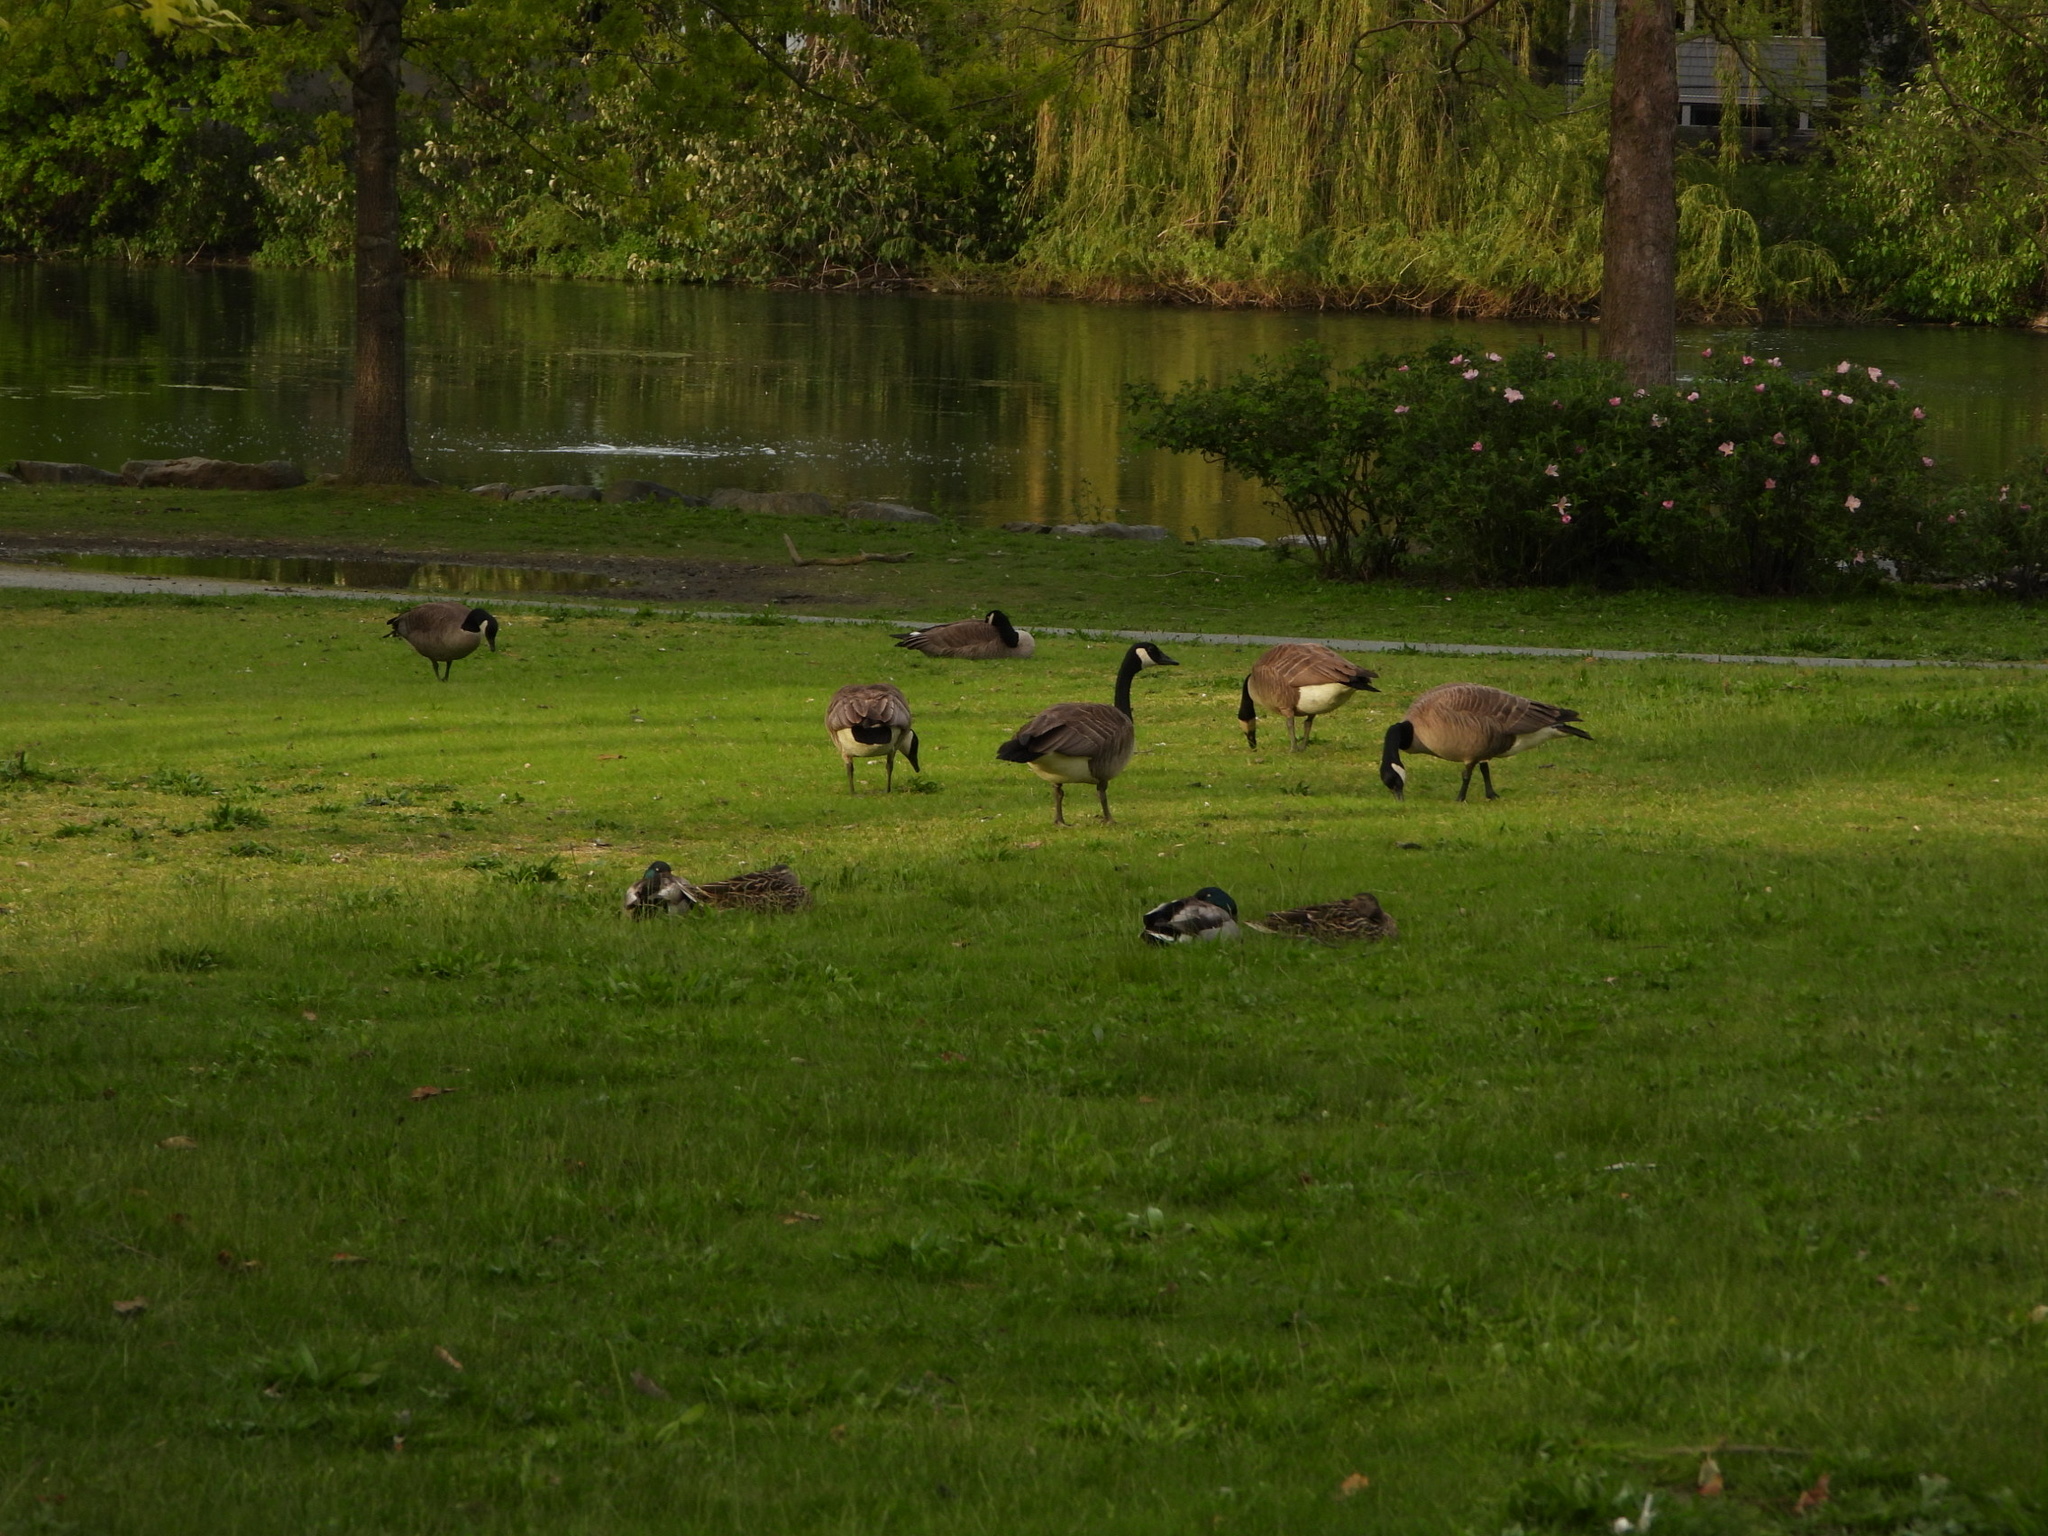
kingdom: Animalia
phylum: Chordata
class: Aves
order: Anseriformes
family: Anatidae
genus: Branta
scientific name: Branta canadensis
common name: Canada goose
